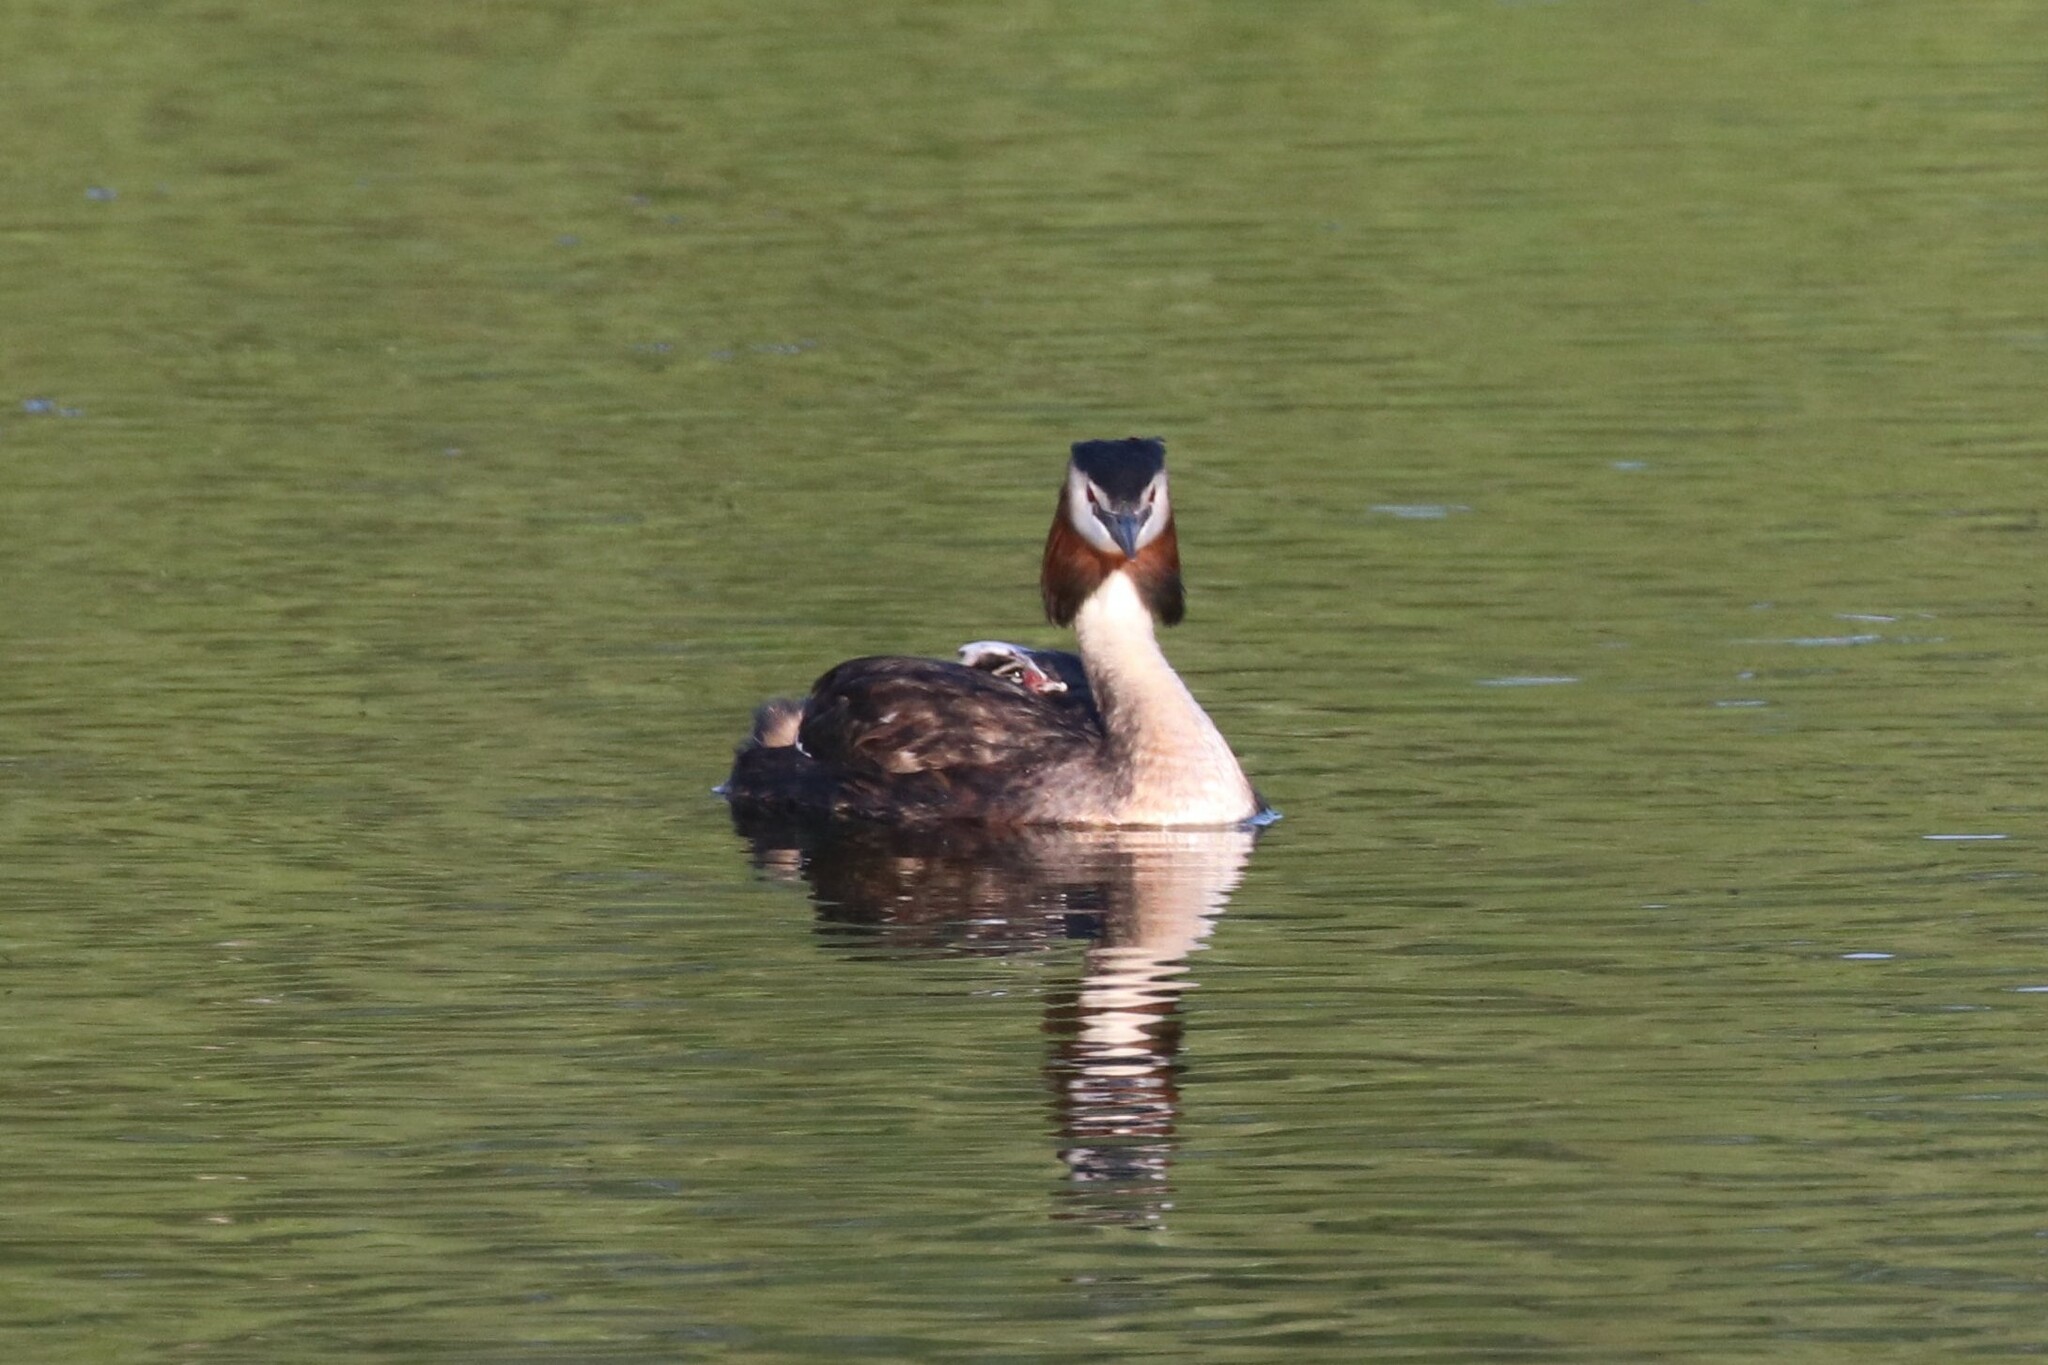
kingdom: Animalia
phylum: Chordata
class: Aves
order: Podicipediformes
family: Podicipedidae
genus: Podiceps
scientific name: Podiceps cristatus
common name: Great crested grebe
